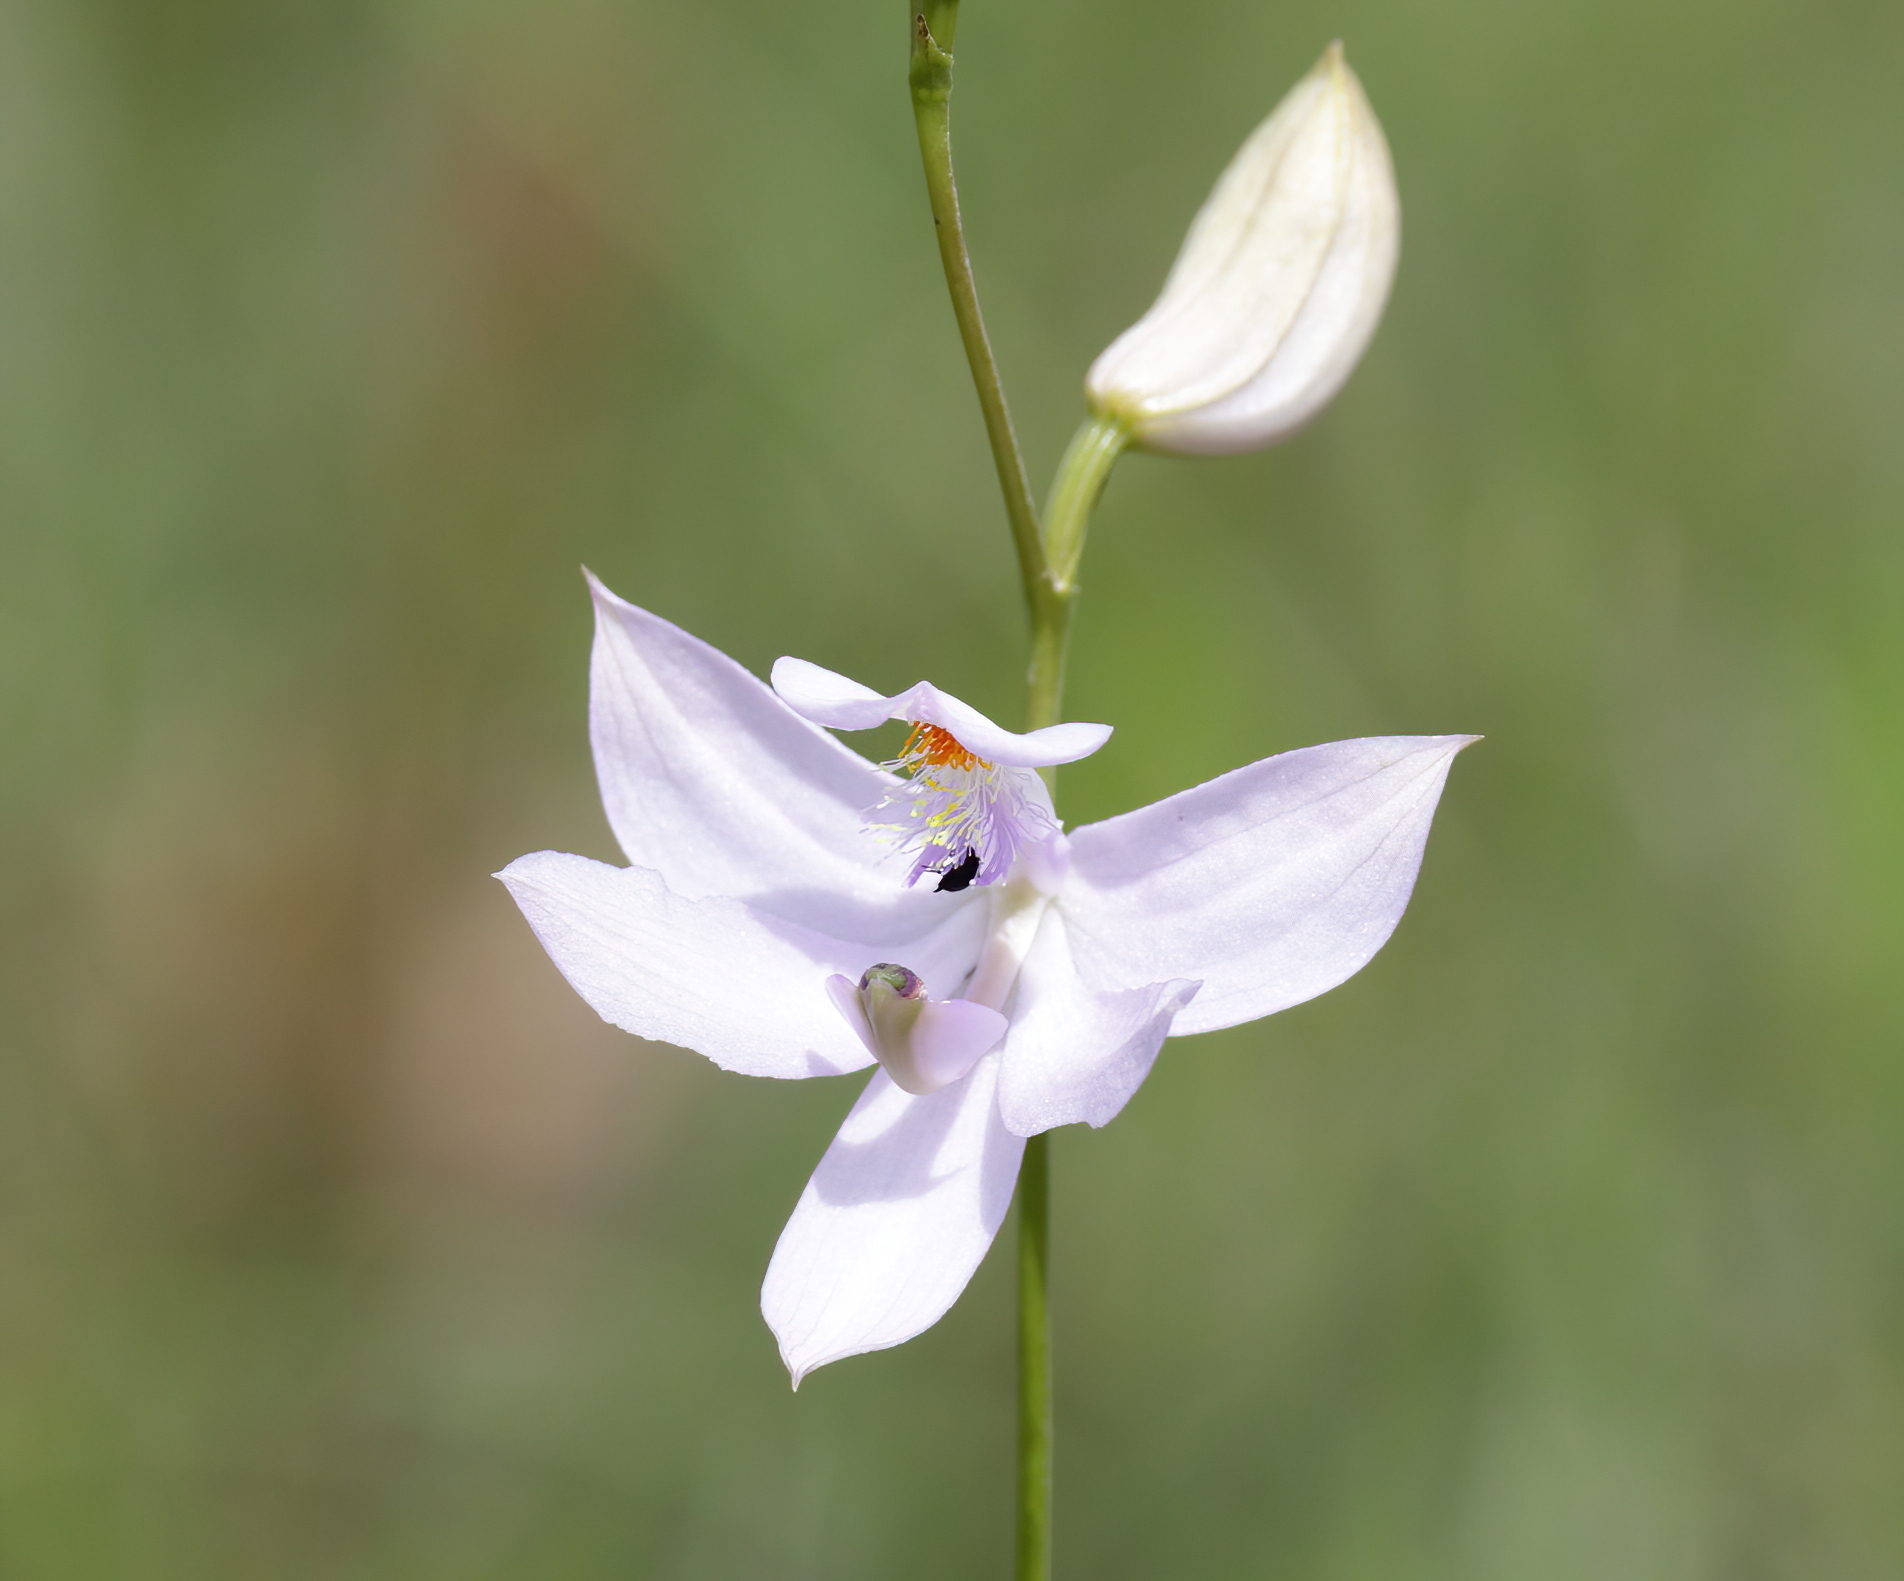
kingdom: Plantae
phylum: Tracheophyta
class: Liliopsida
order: Asparagales
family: Orchidaceae
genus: Calopogon
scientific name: Calopogon tuberosus
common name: Grass-pink
